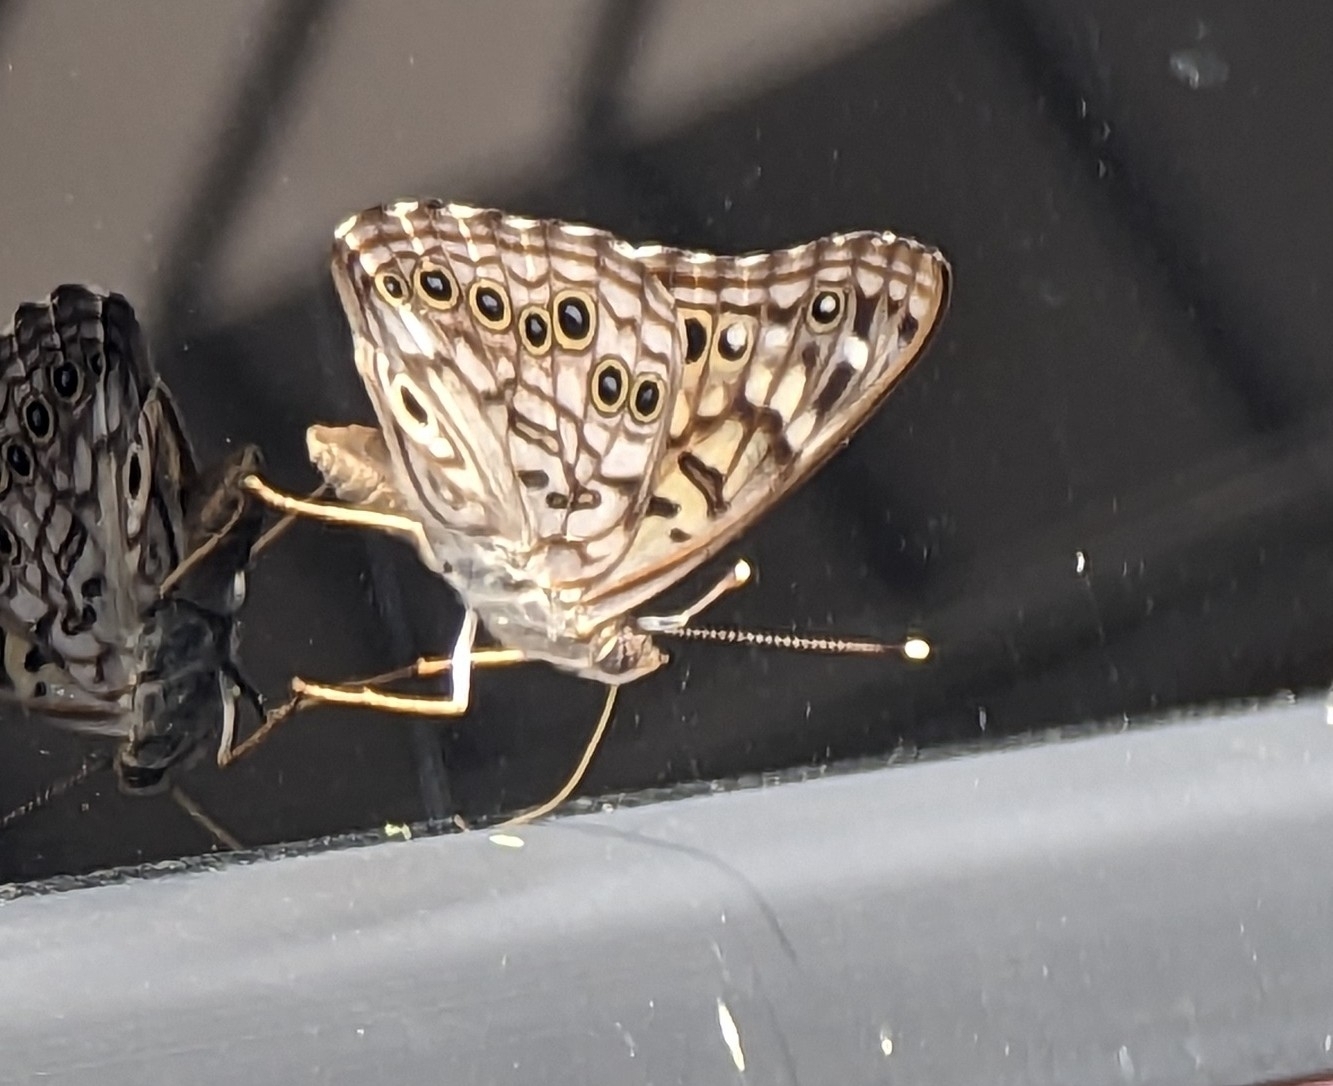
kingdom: Animalia
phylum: Arthropoda
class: Insecta
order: Lepidoptera
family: Nymphalidae
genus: Asterocampa
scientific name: Asterocampa celtis
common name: Hackberry emperor
